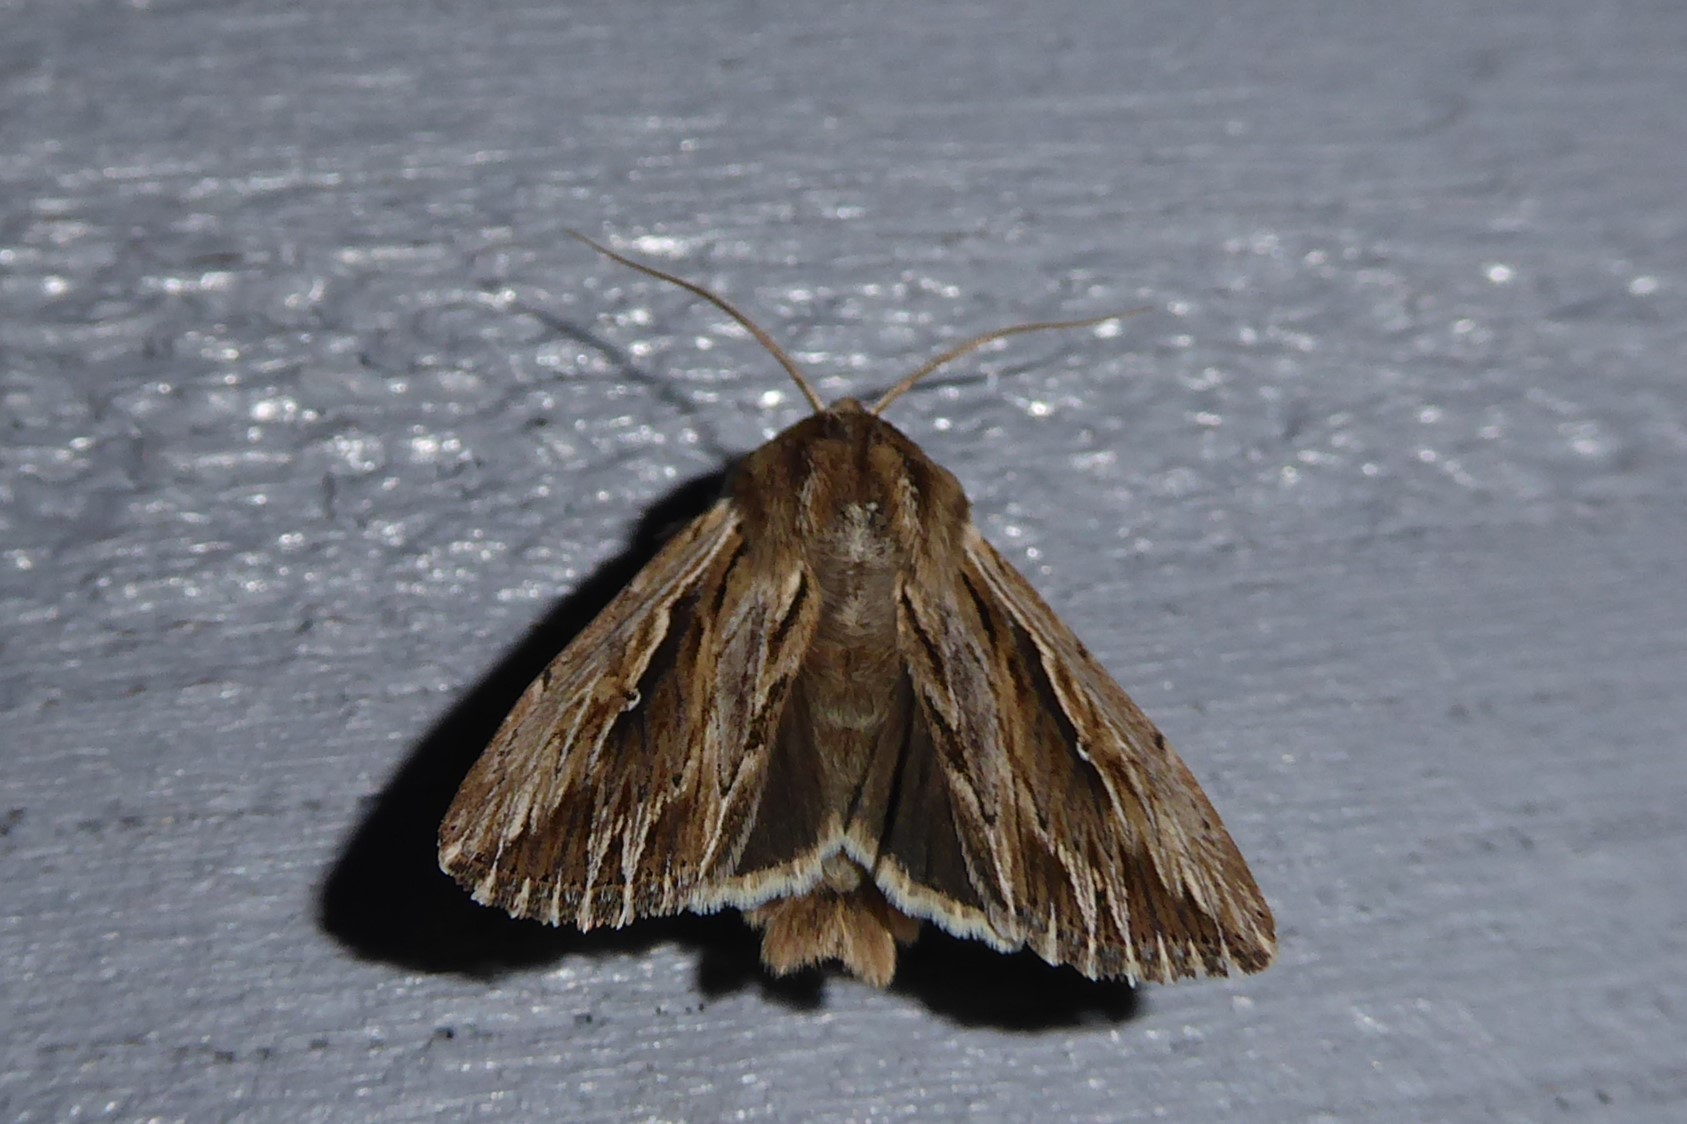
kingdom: Animalia
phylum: Arthropoda
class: Insecta
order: Lepidoptera
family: Noctuidae
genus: Persectania
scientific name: Persectania aversa
